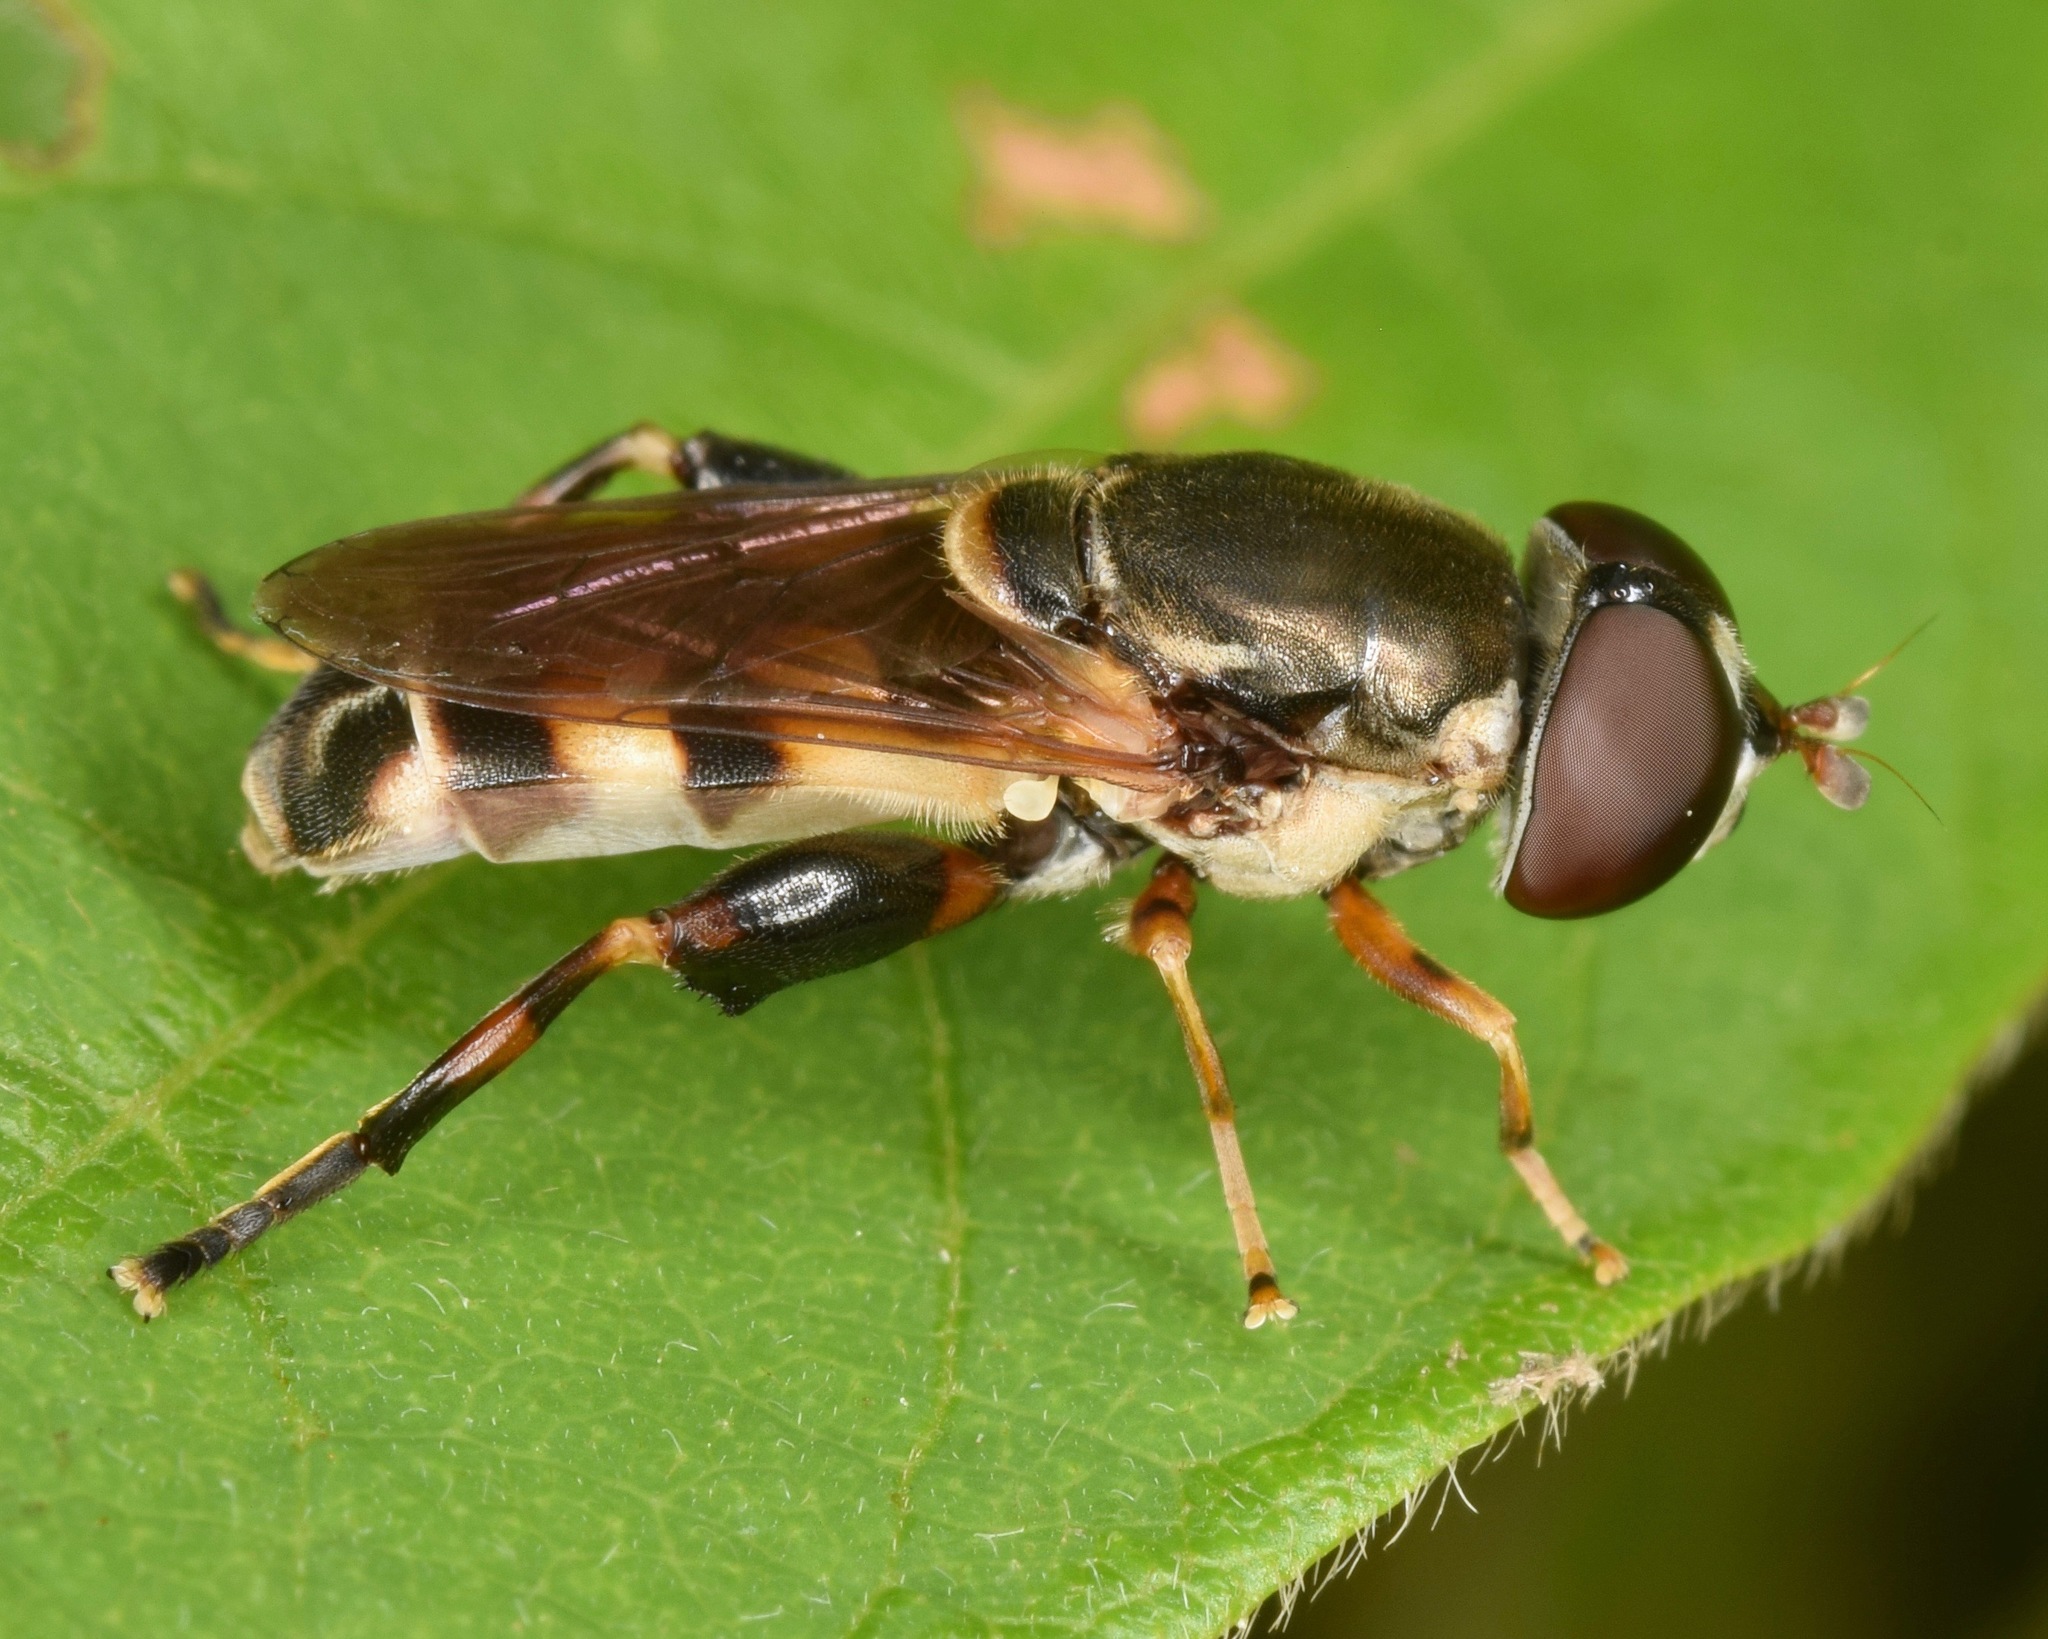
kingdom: Animalia
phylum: Arthropoda
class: Insecta
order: Diptera
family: Syrphidae
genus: Tropidia
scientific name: Tropidia albistylum
